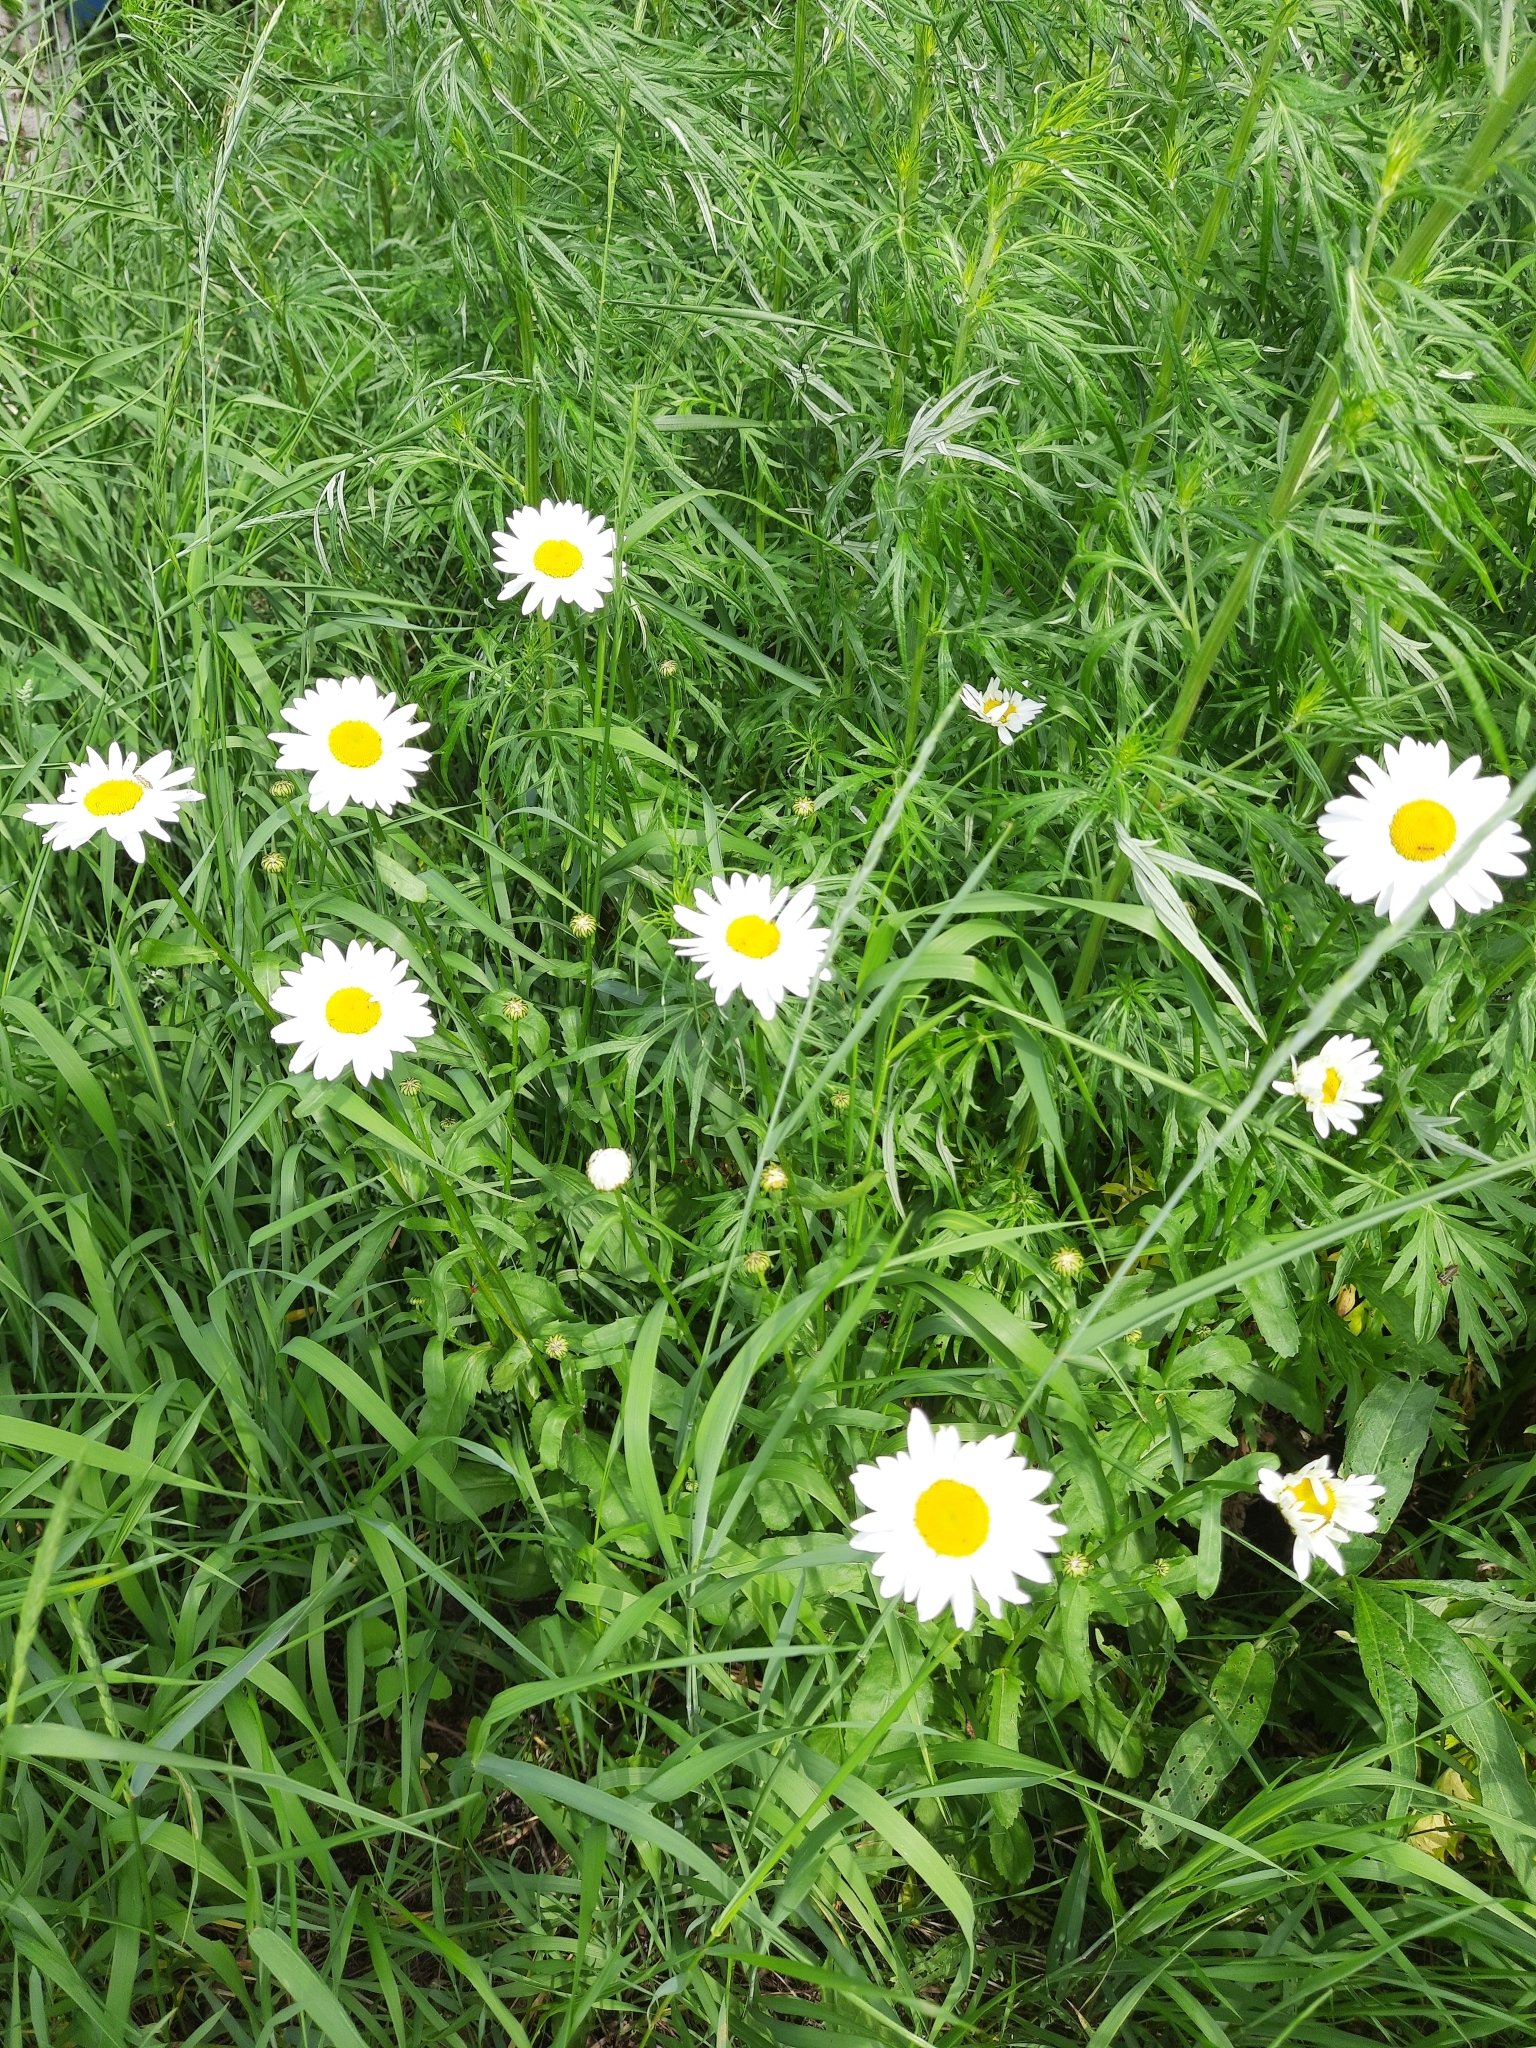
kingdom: Plantae
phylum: Tracheophyta
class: Magnoliopsida
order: Asterales
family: Asteraceae
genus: Leucanthemum
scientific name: Leucanthemum ircutianum
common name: Daisy
